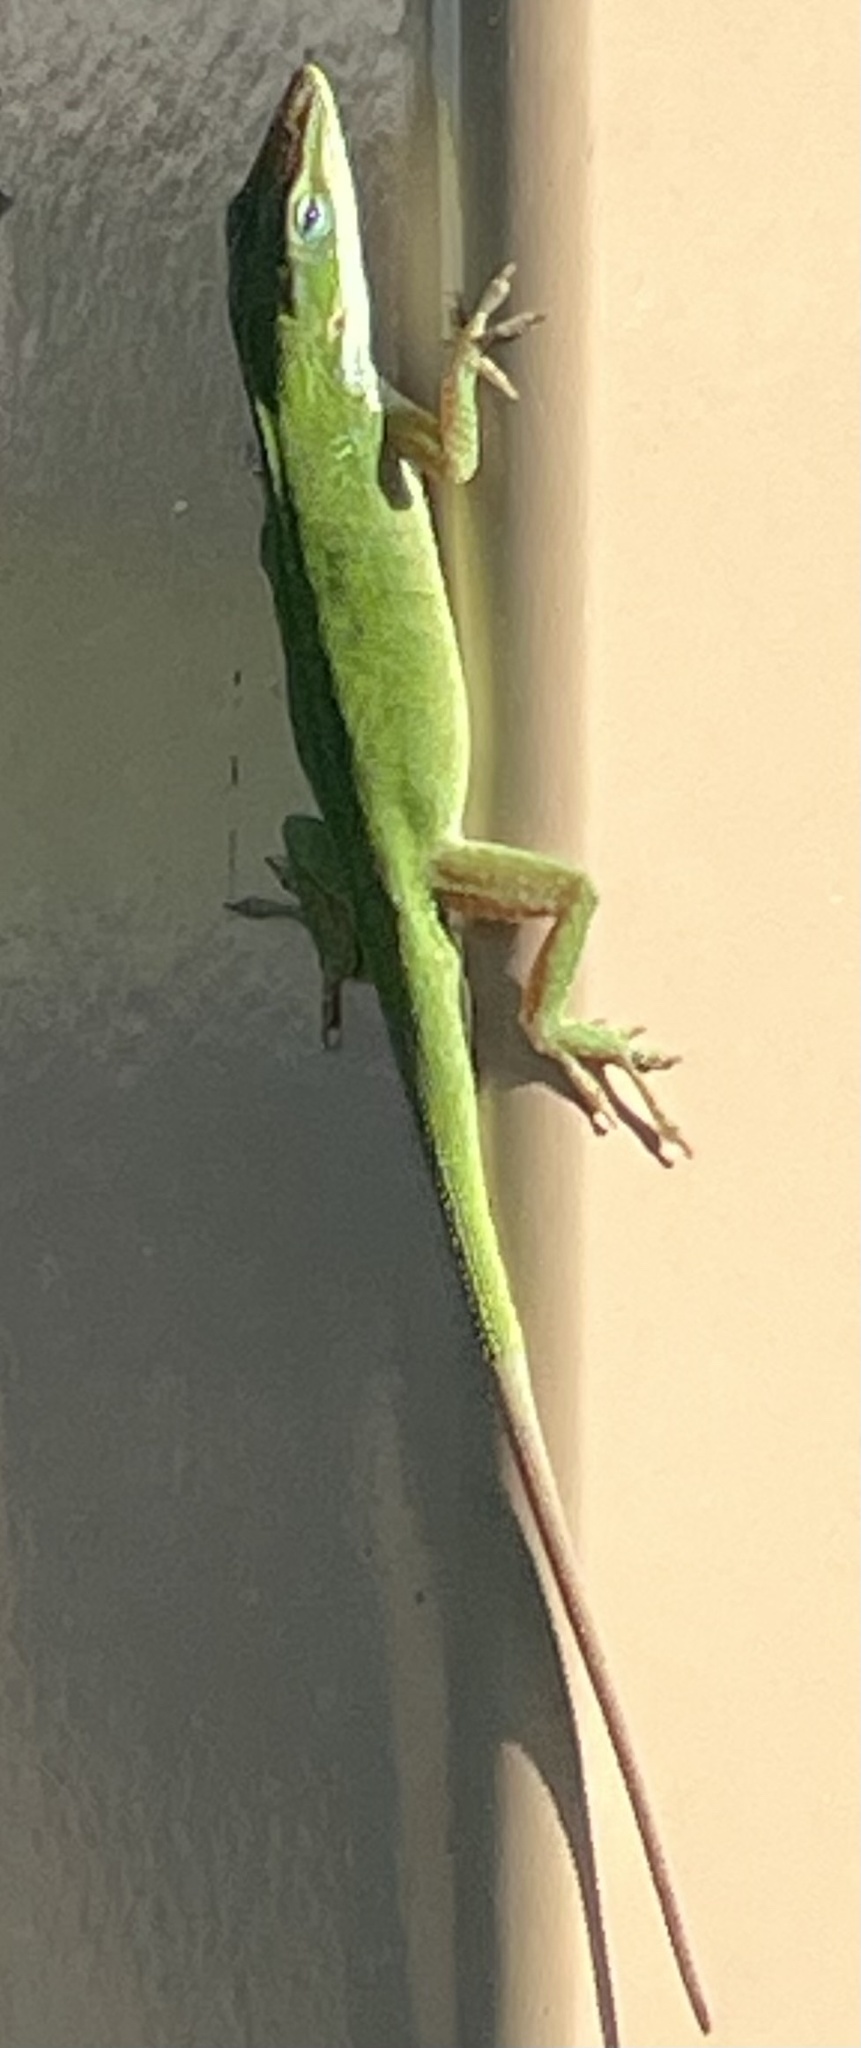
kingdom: Animalia
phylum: Chordata
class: Squamata
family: Dactyloidae
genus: Anolis
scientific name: Anolis carolinensis
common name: Green anole
